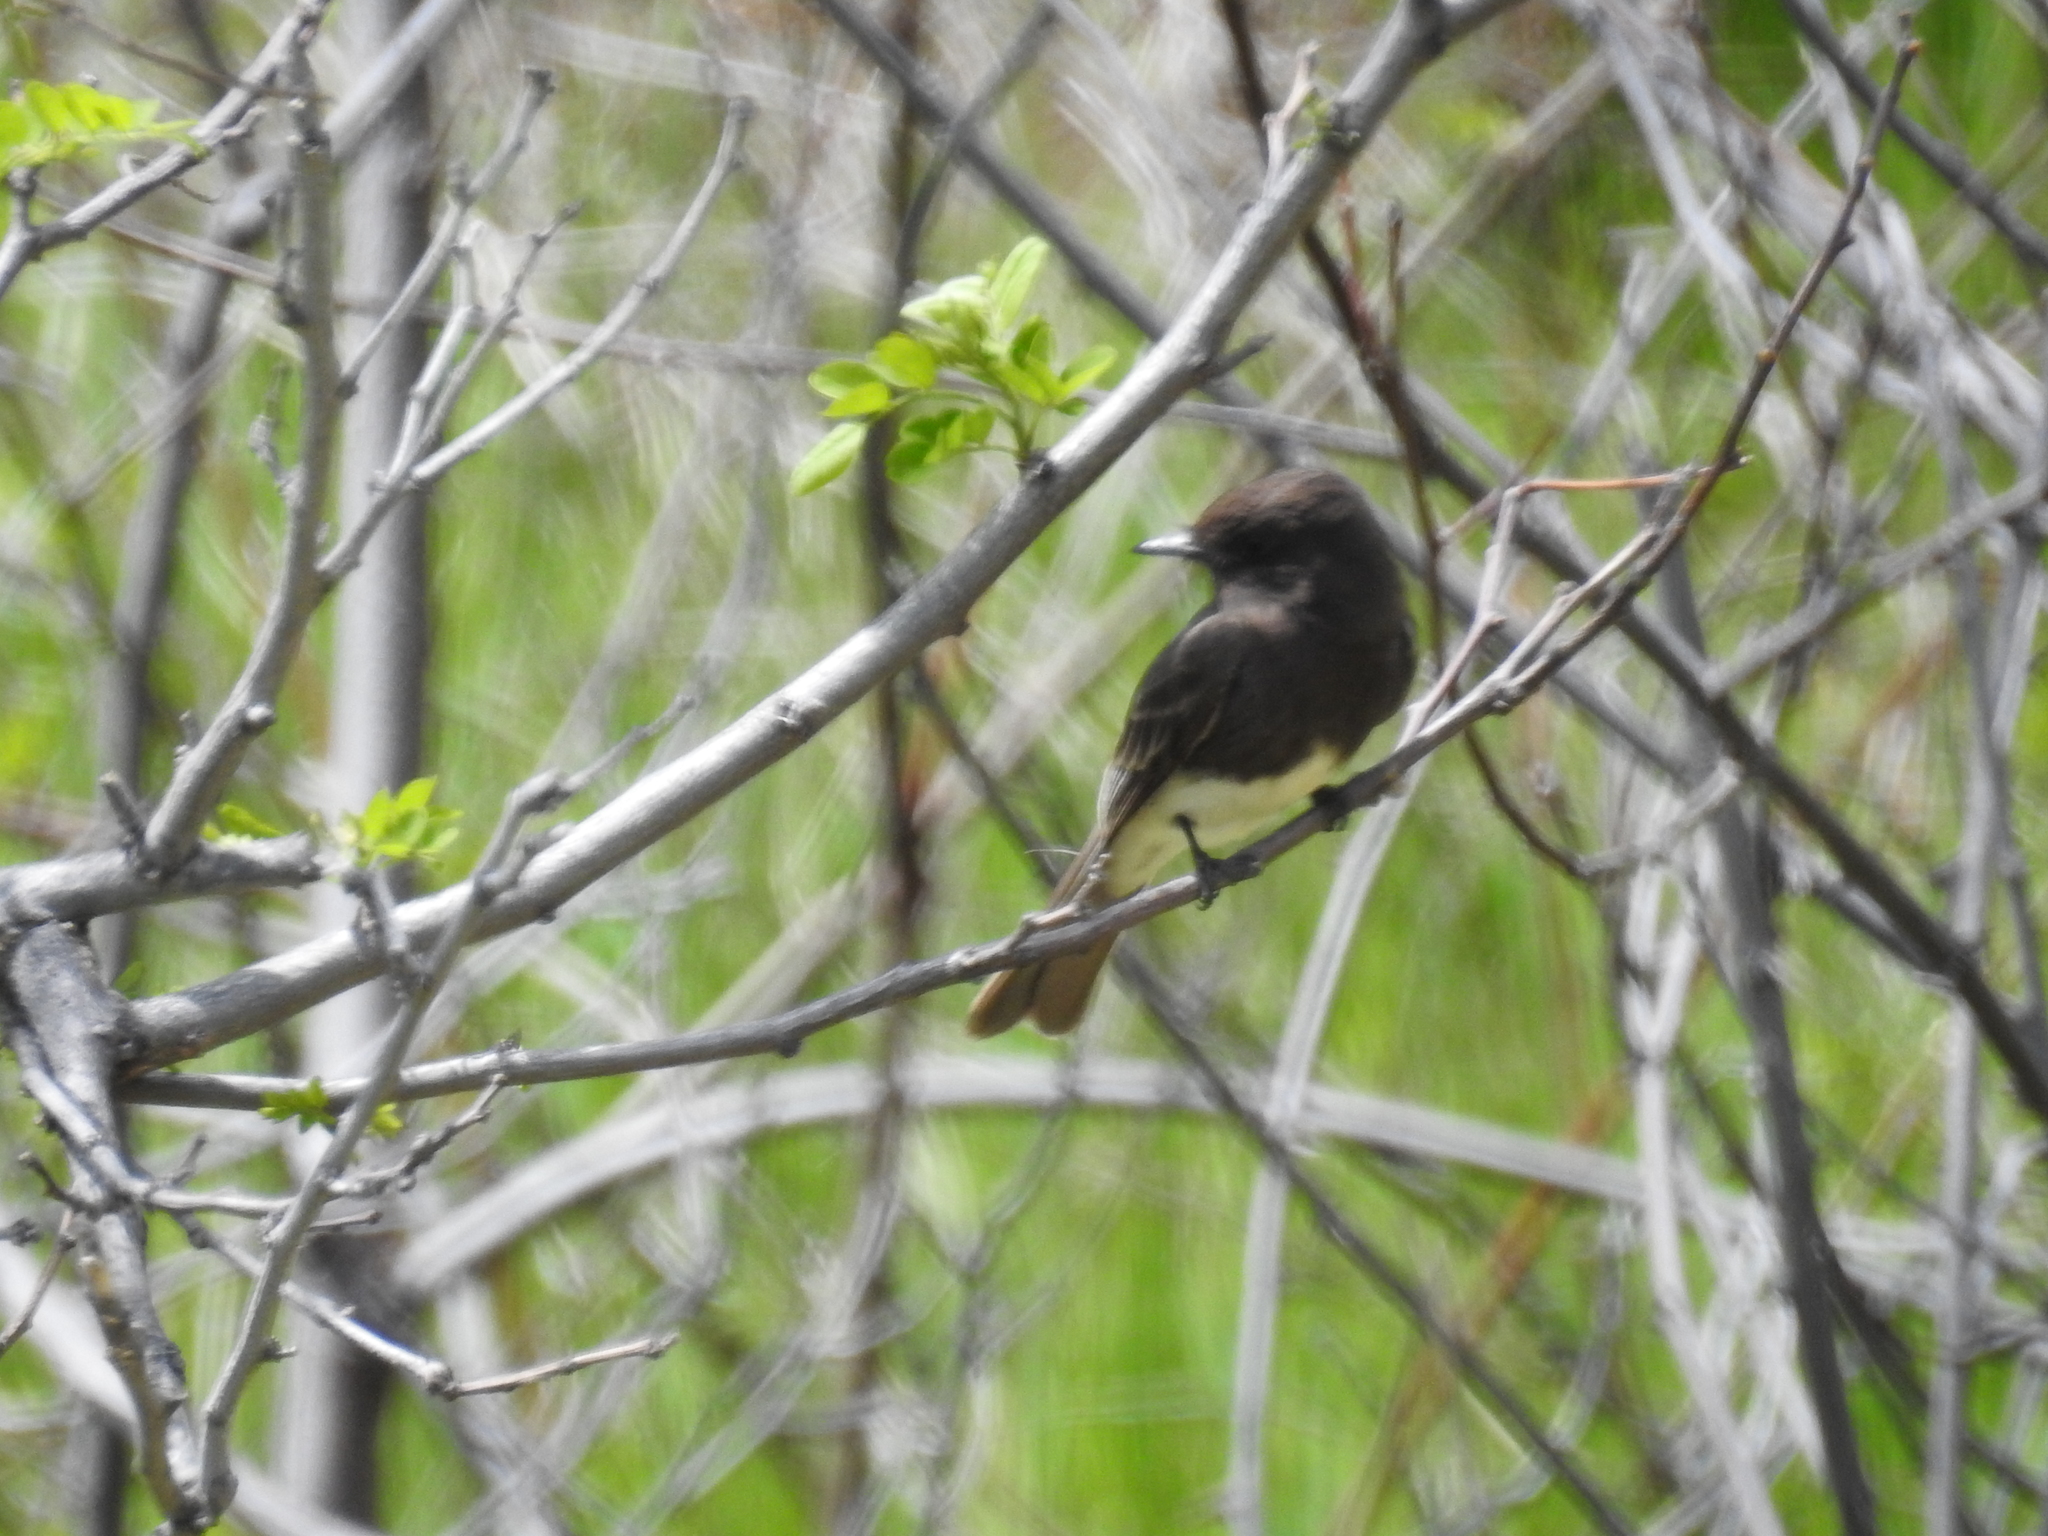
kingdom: Animalia
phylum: Chordata
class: Aves
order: Passeriformes
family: Tyrannidae
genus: Sayornis
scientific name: Sayornis nigricans
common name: Black phoebe
